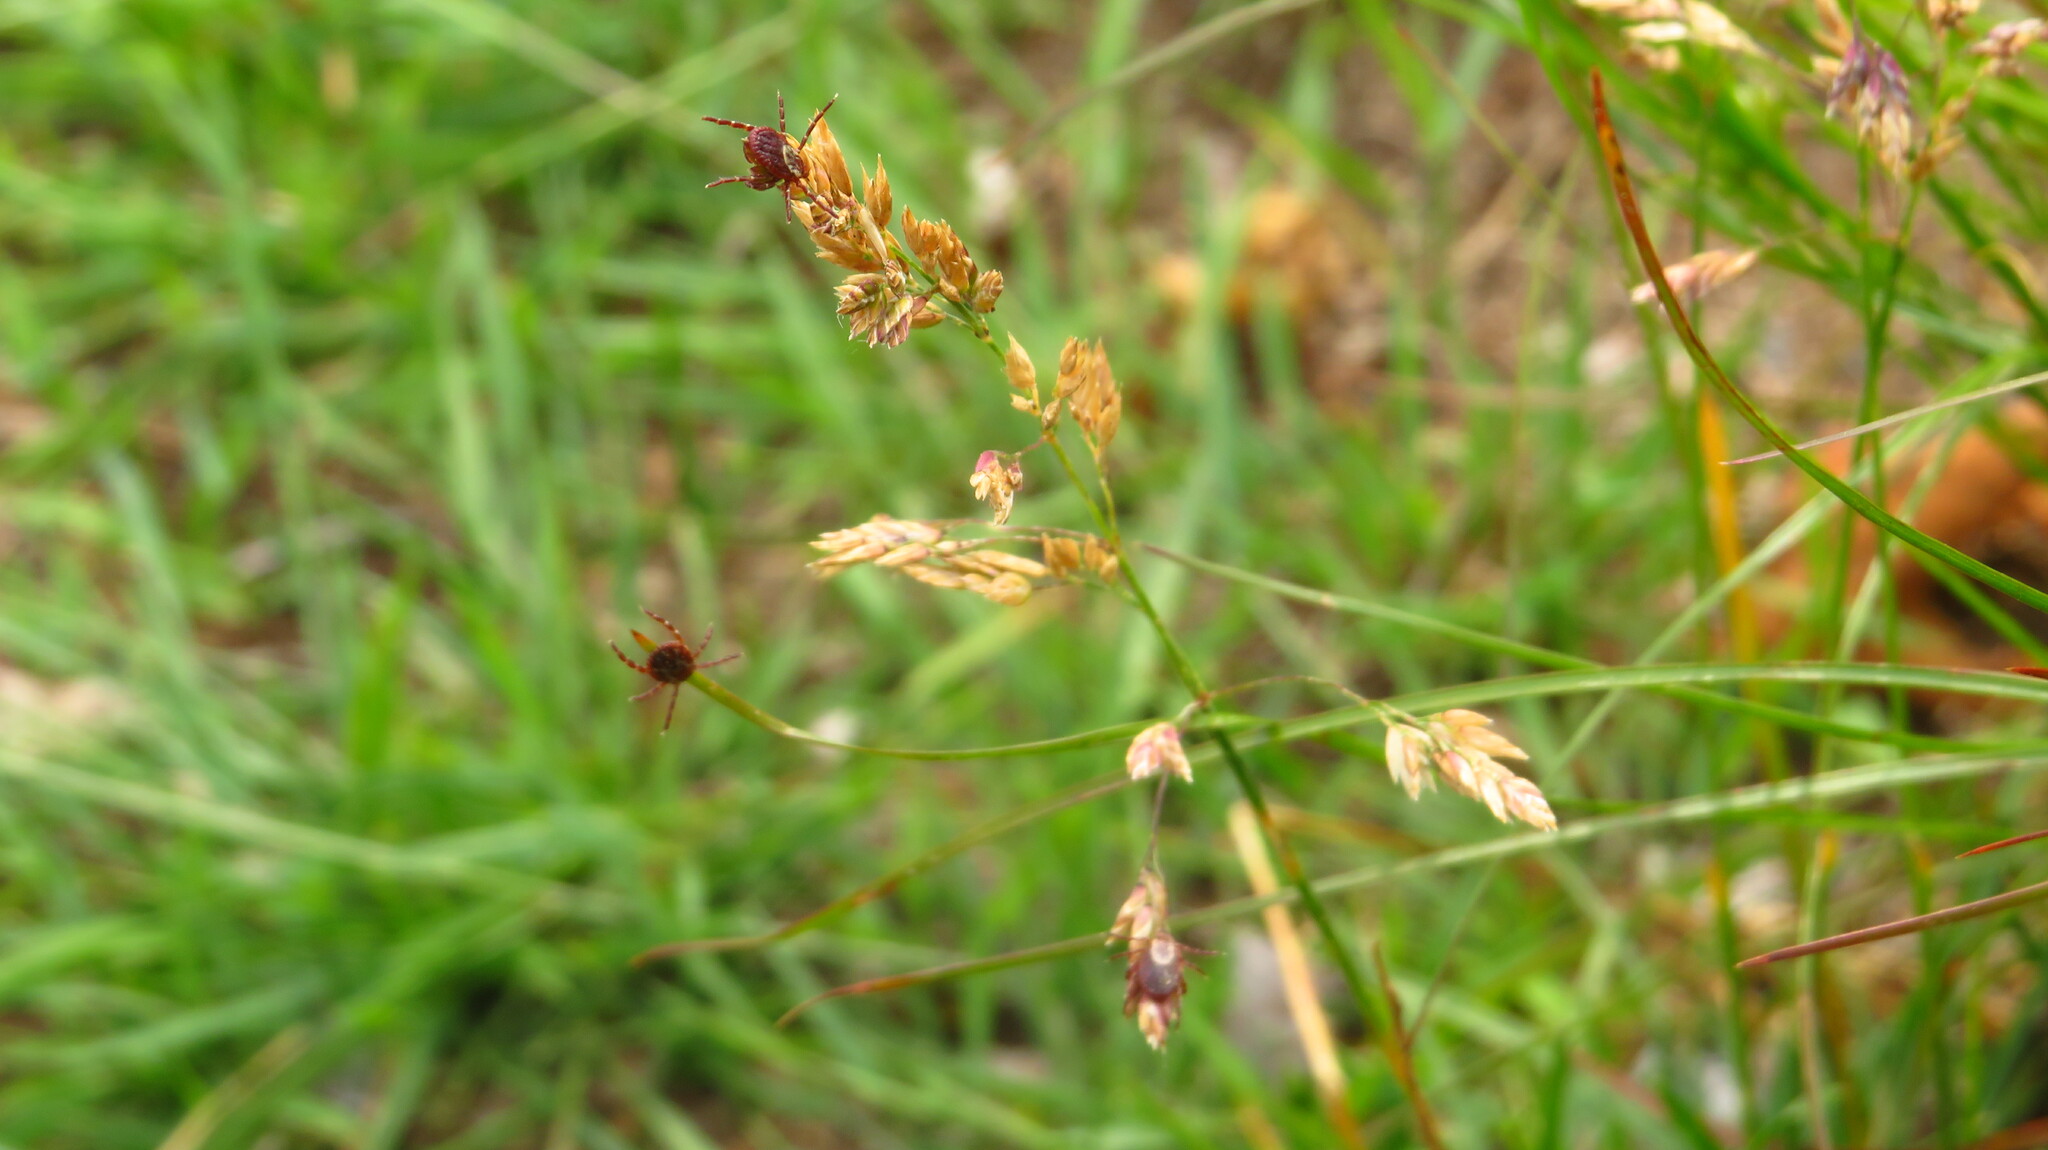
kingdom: Animalia
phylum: Arthropoda
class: Arachnida
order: Ixodida
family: Ixodidae
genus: Dermacentor
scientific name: Dermacentor variabilis
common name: American dog tick
